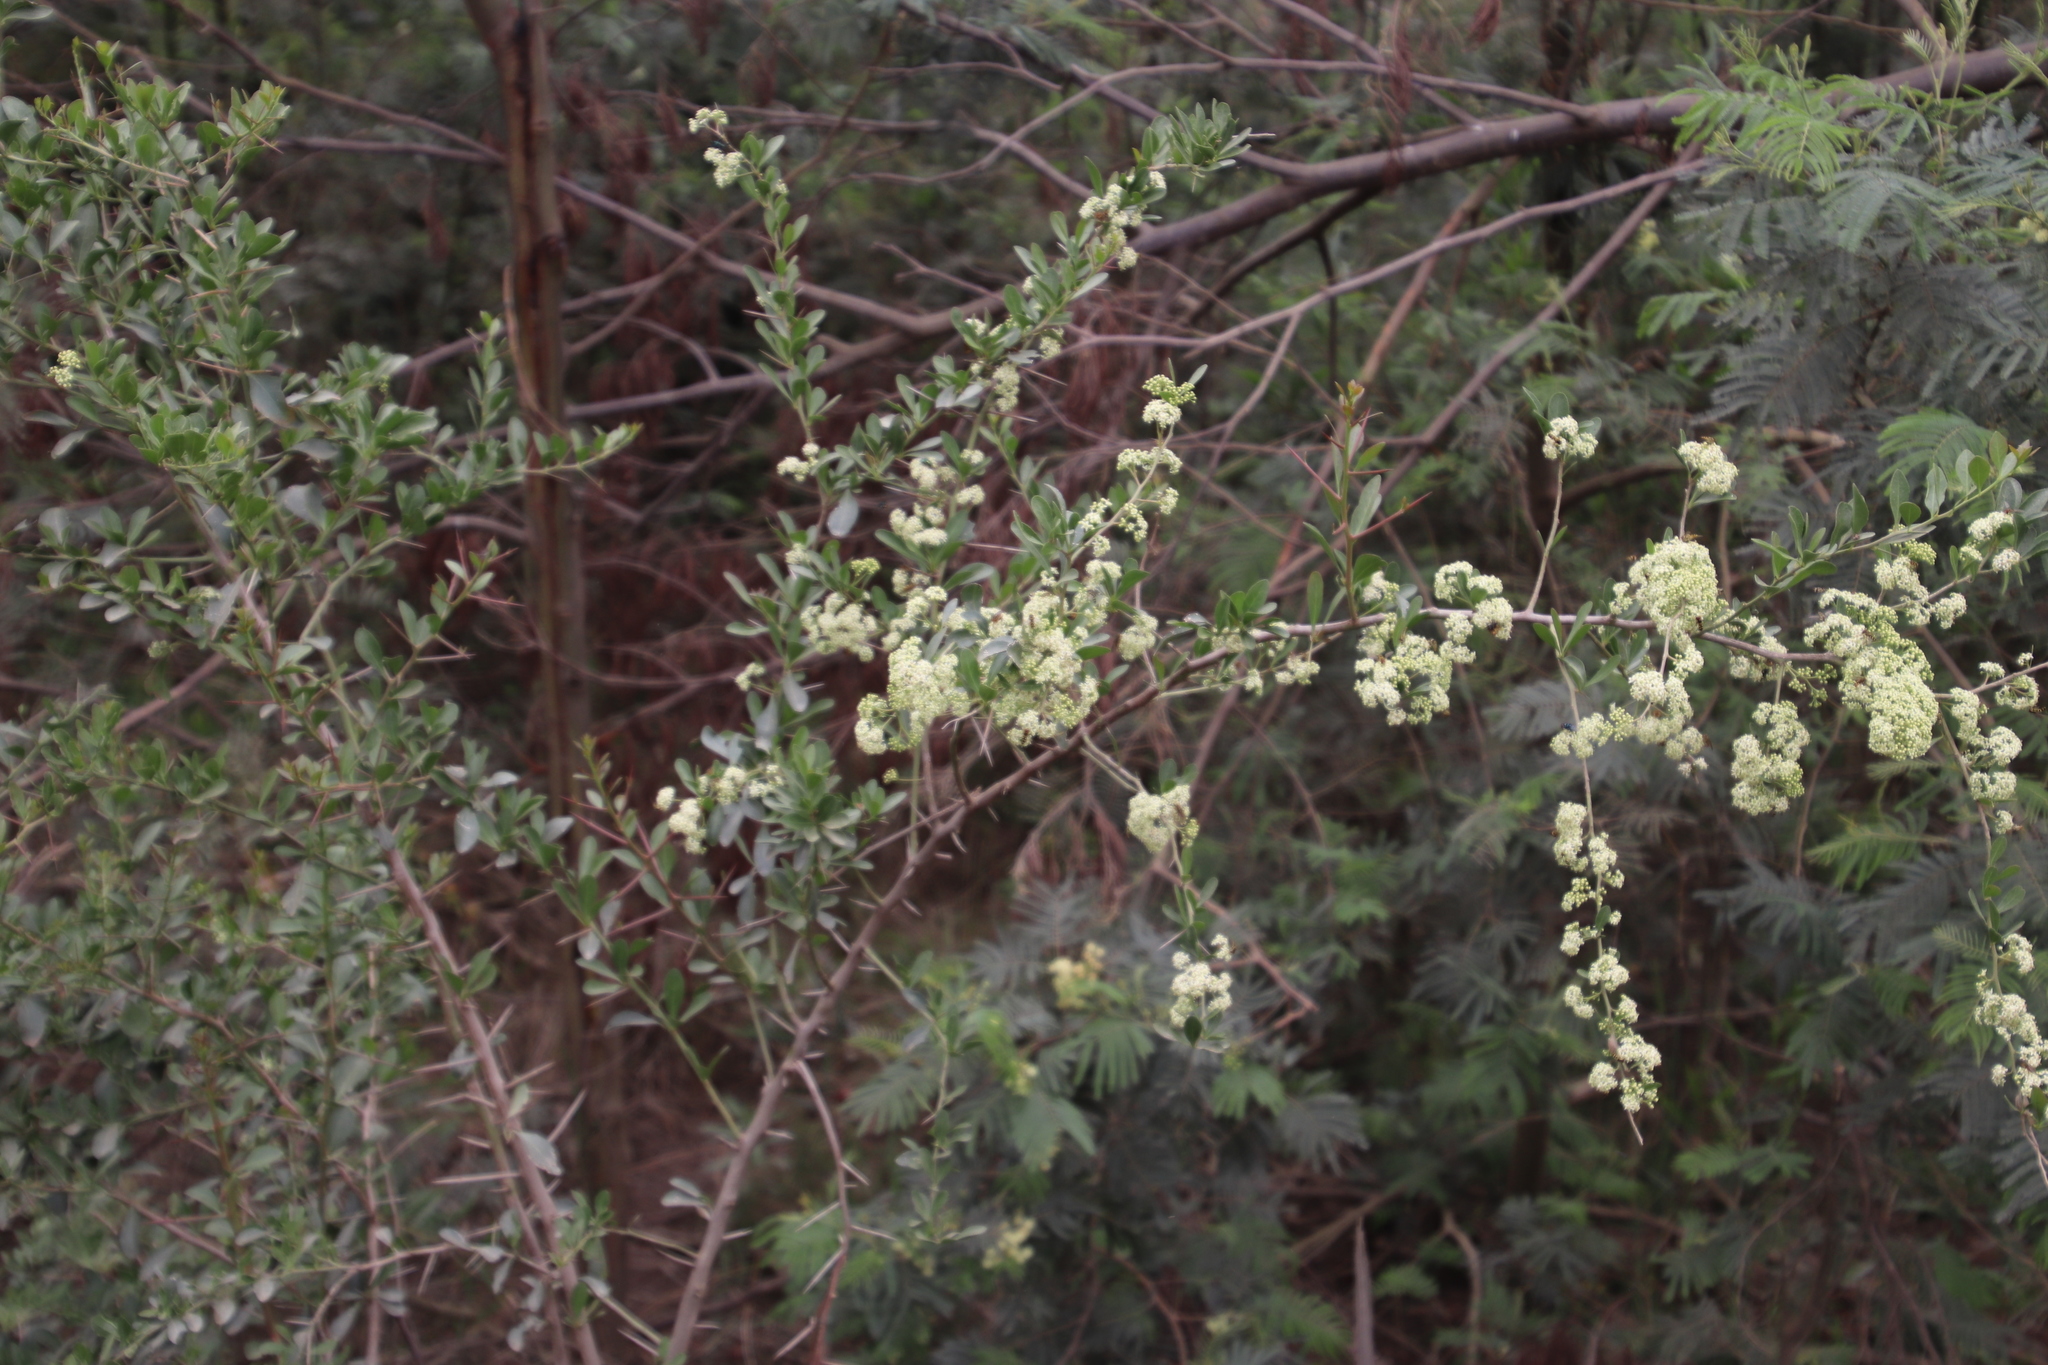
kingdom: Plantae
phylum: Tracheophyta
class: Magnoliopsida
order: Celastrales
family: Celastraceae
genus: Gymnosporia
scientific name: Gymnosporia buxifolia
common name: Common spike-thorn
